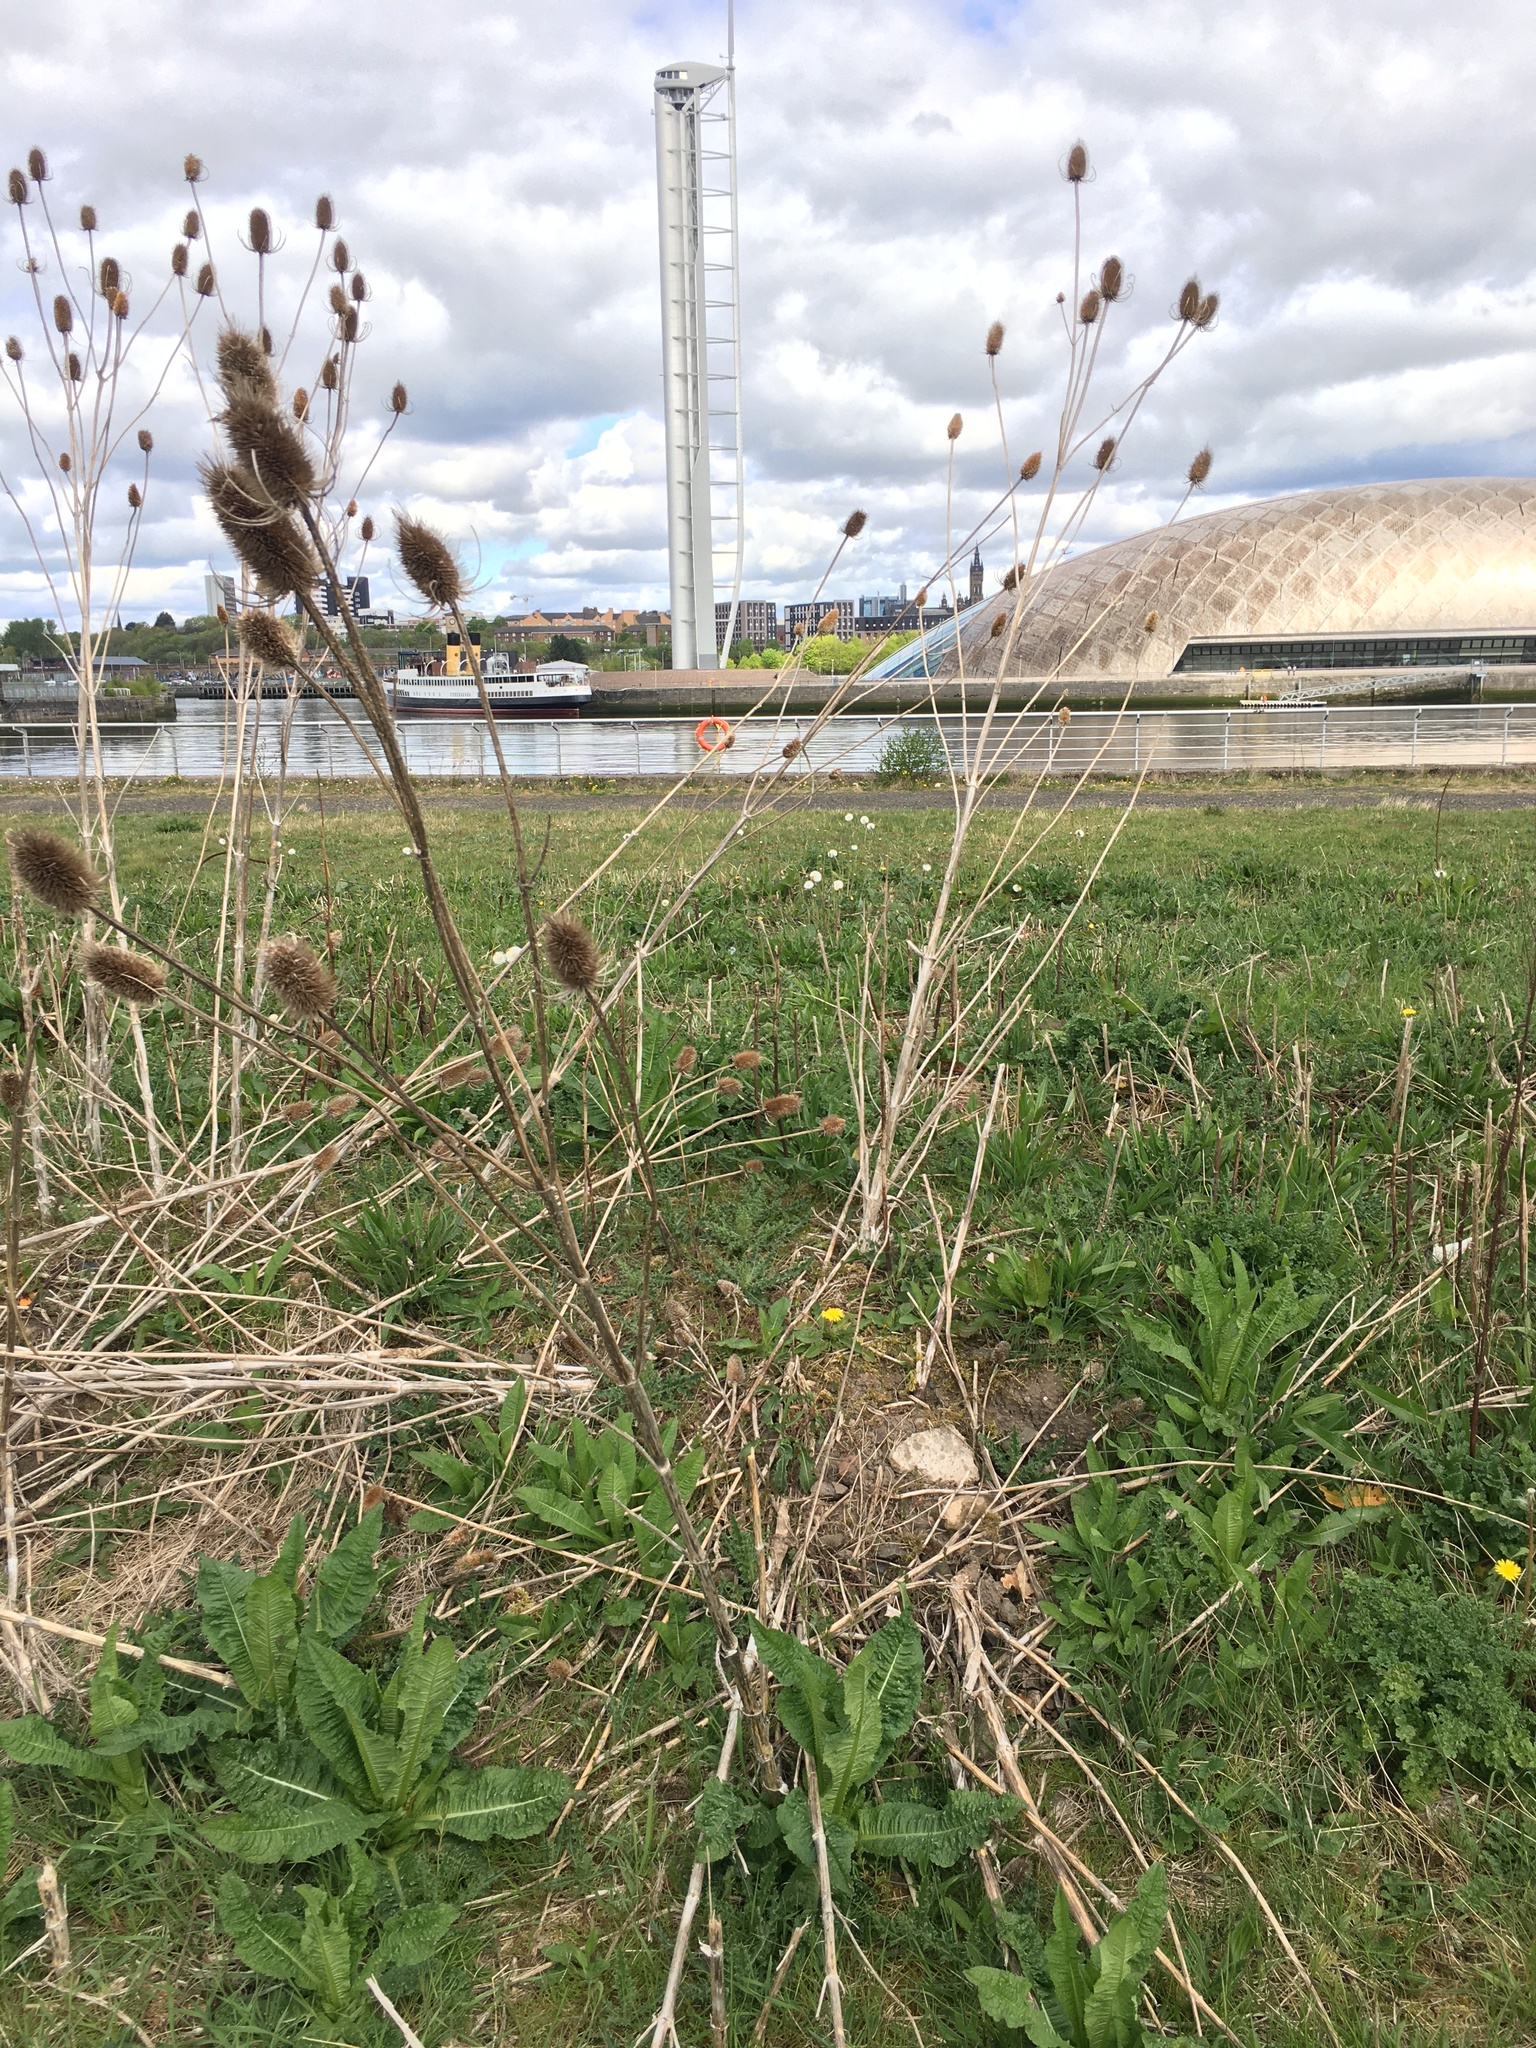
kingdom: Plantae
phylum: Tracheophyta
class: Magnoliopsida
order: Dipsacales
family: Caprifoliaceae
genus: Dipsacus
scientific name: Dipsacus fullonum
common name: Teasel
